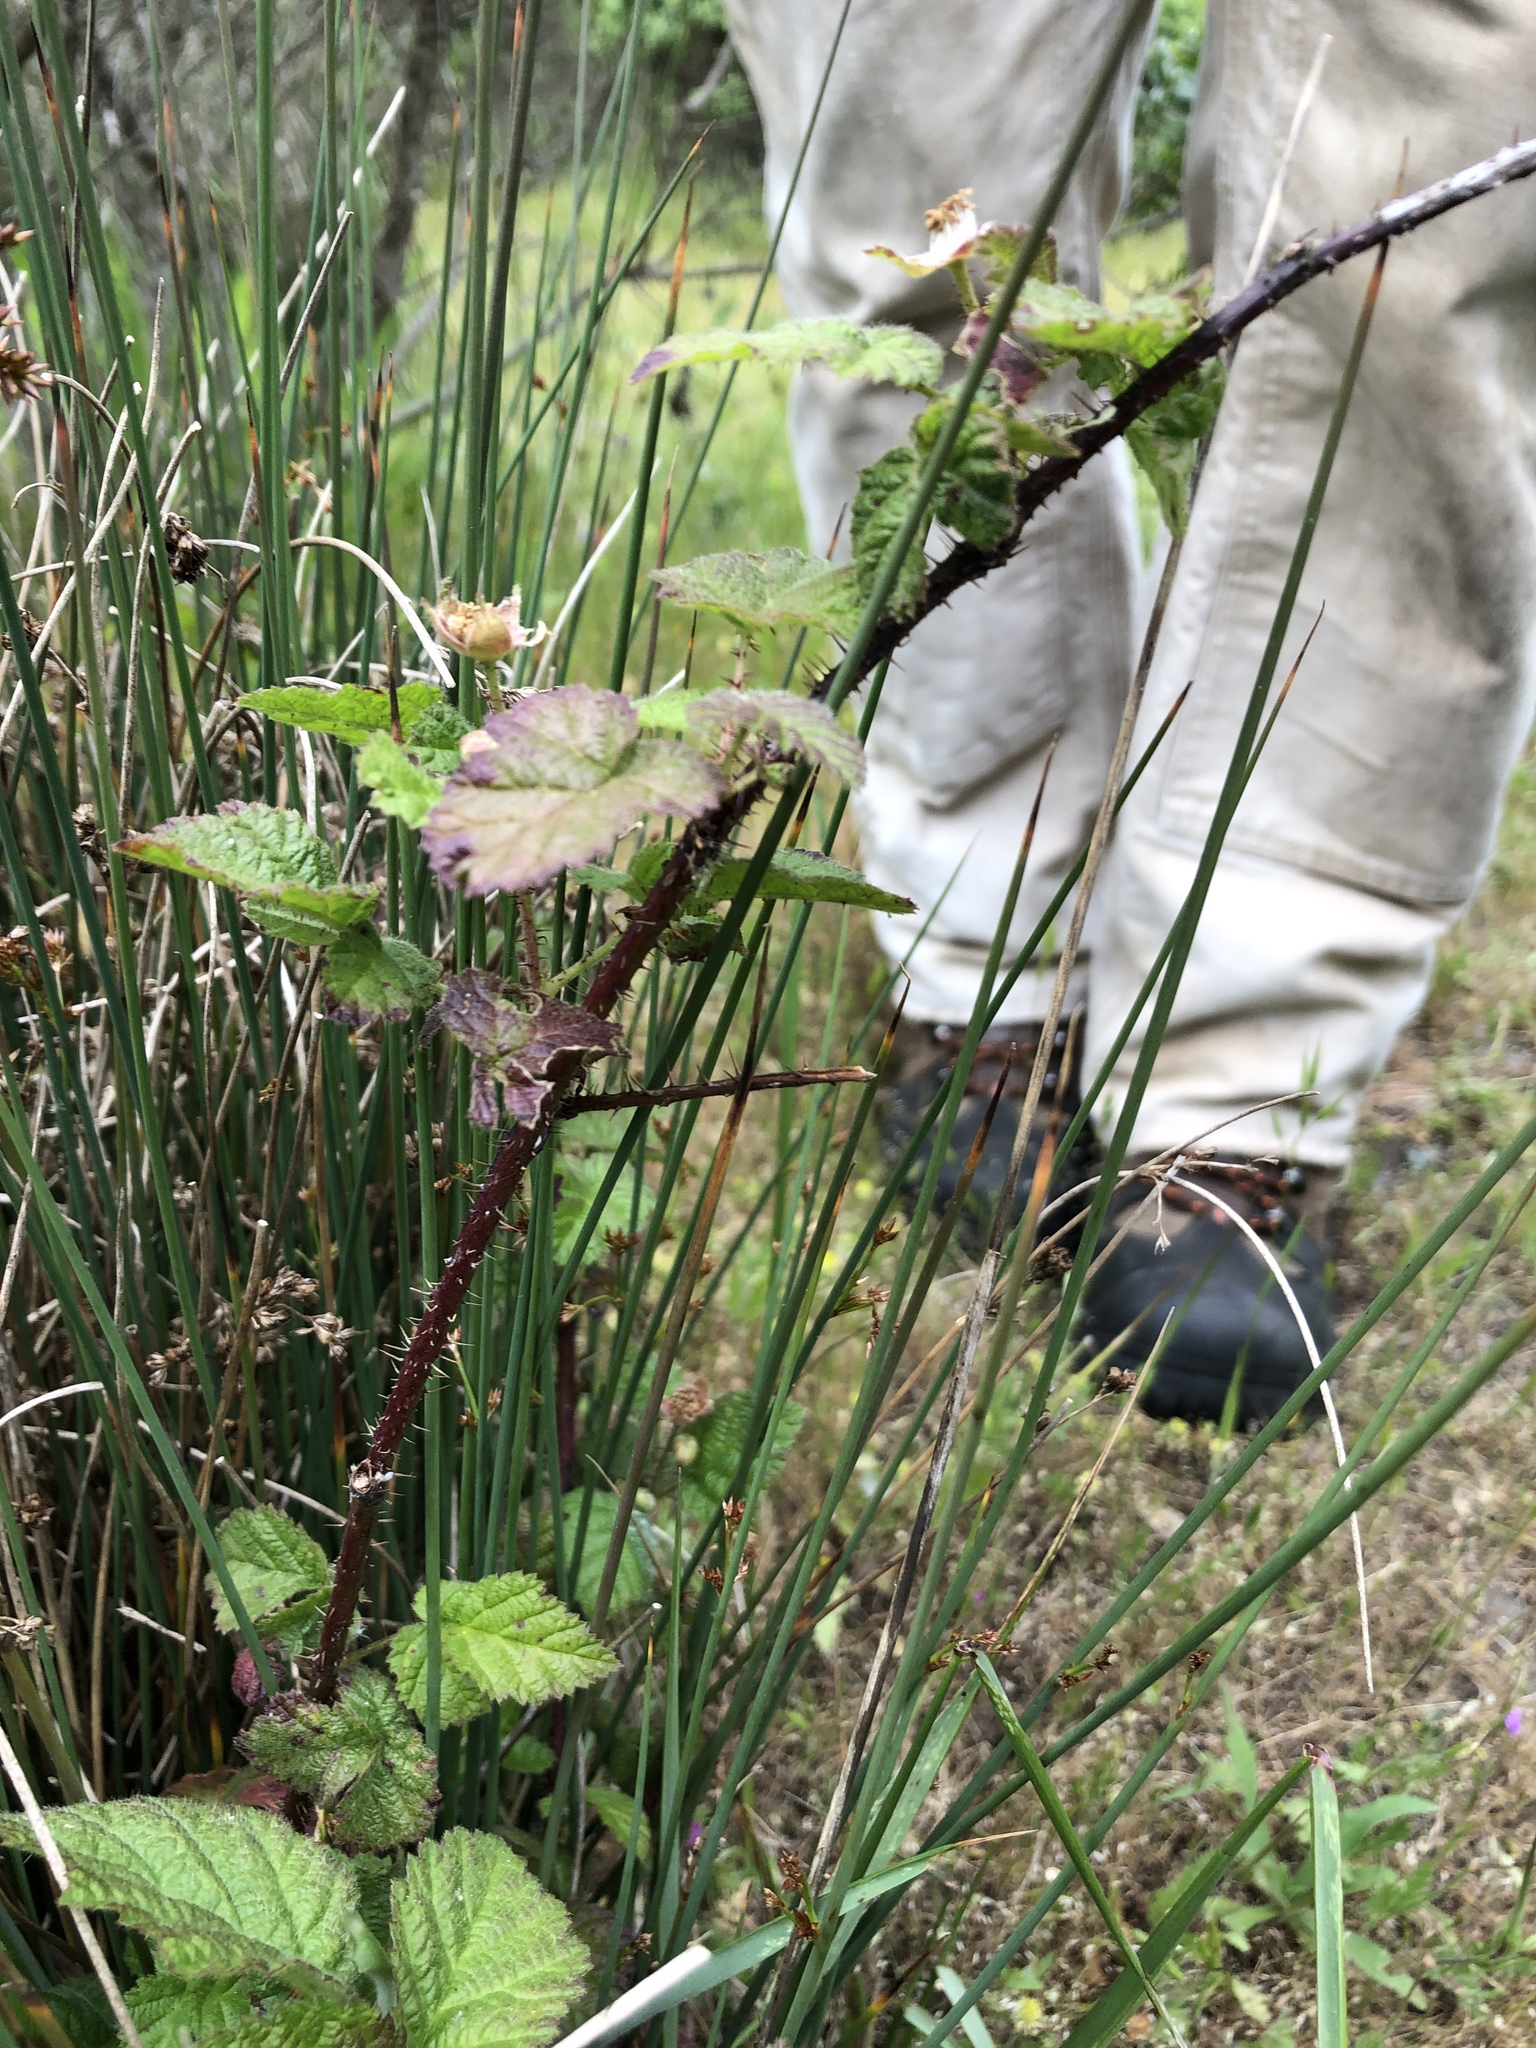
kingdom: Plantae
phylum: Tracheophyta
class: Magnoliopsida
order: Rosales
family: Rosaceae
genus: Rubus
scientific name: Rubus ursinus
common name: Pacific blackberry
